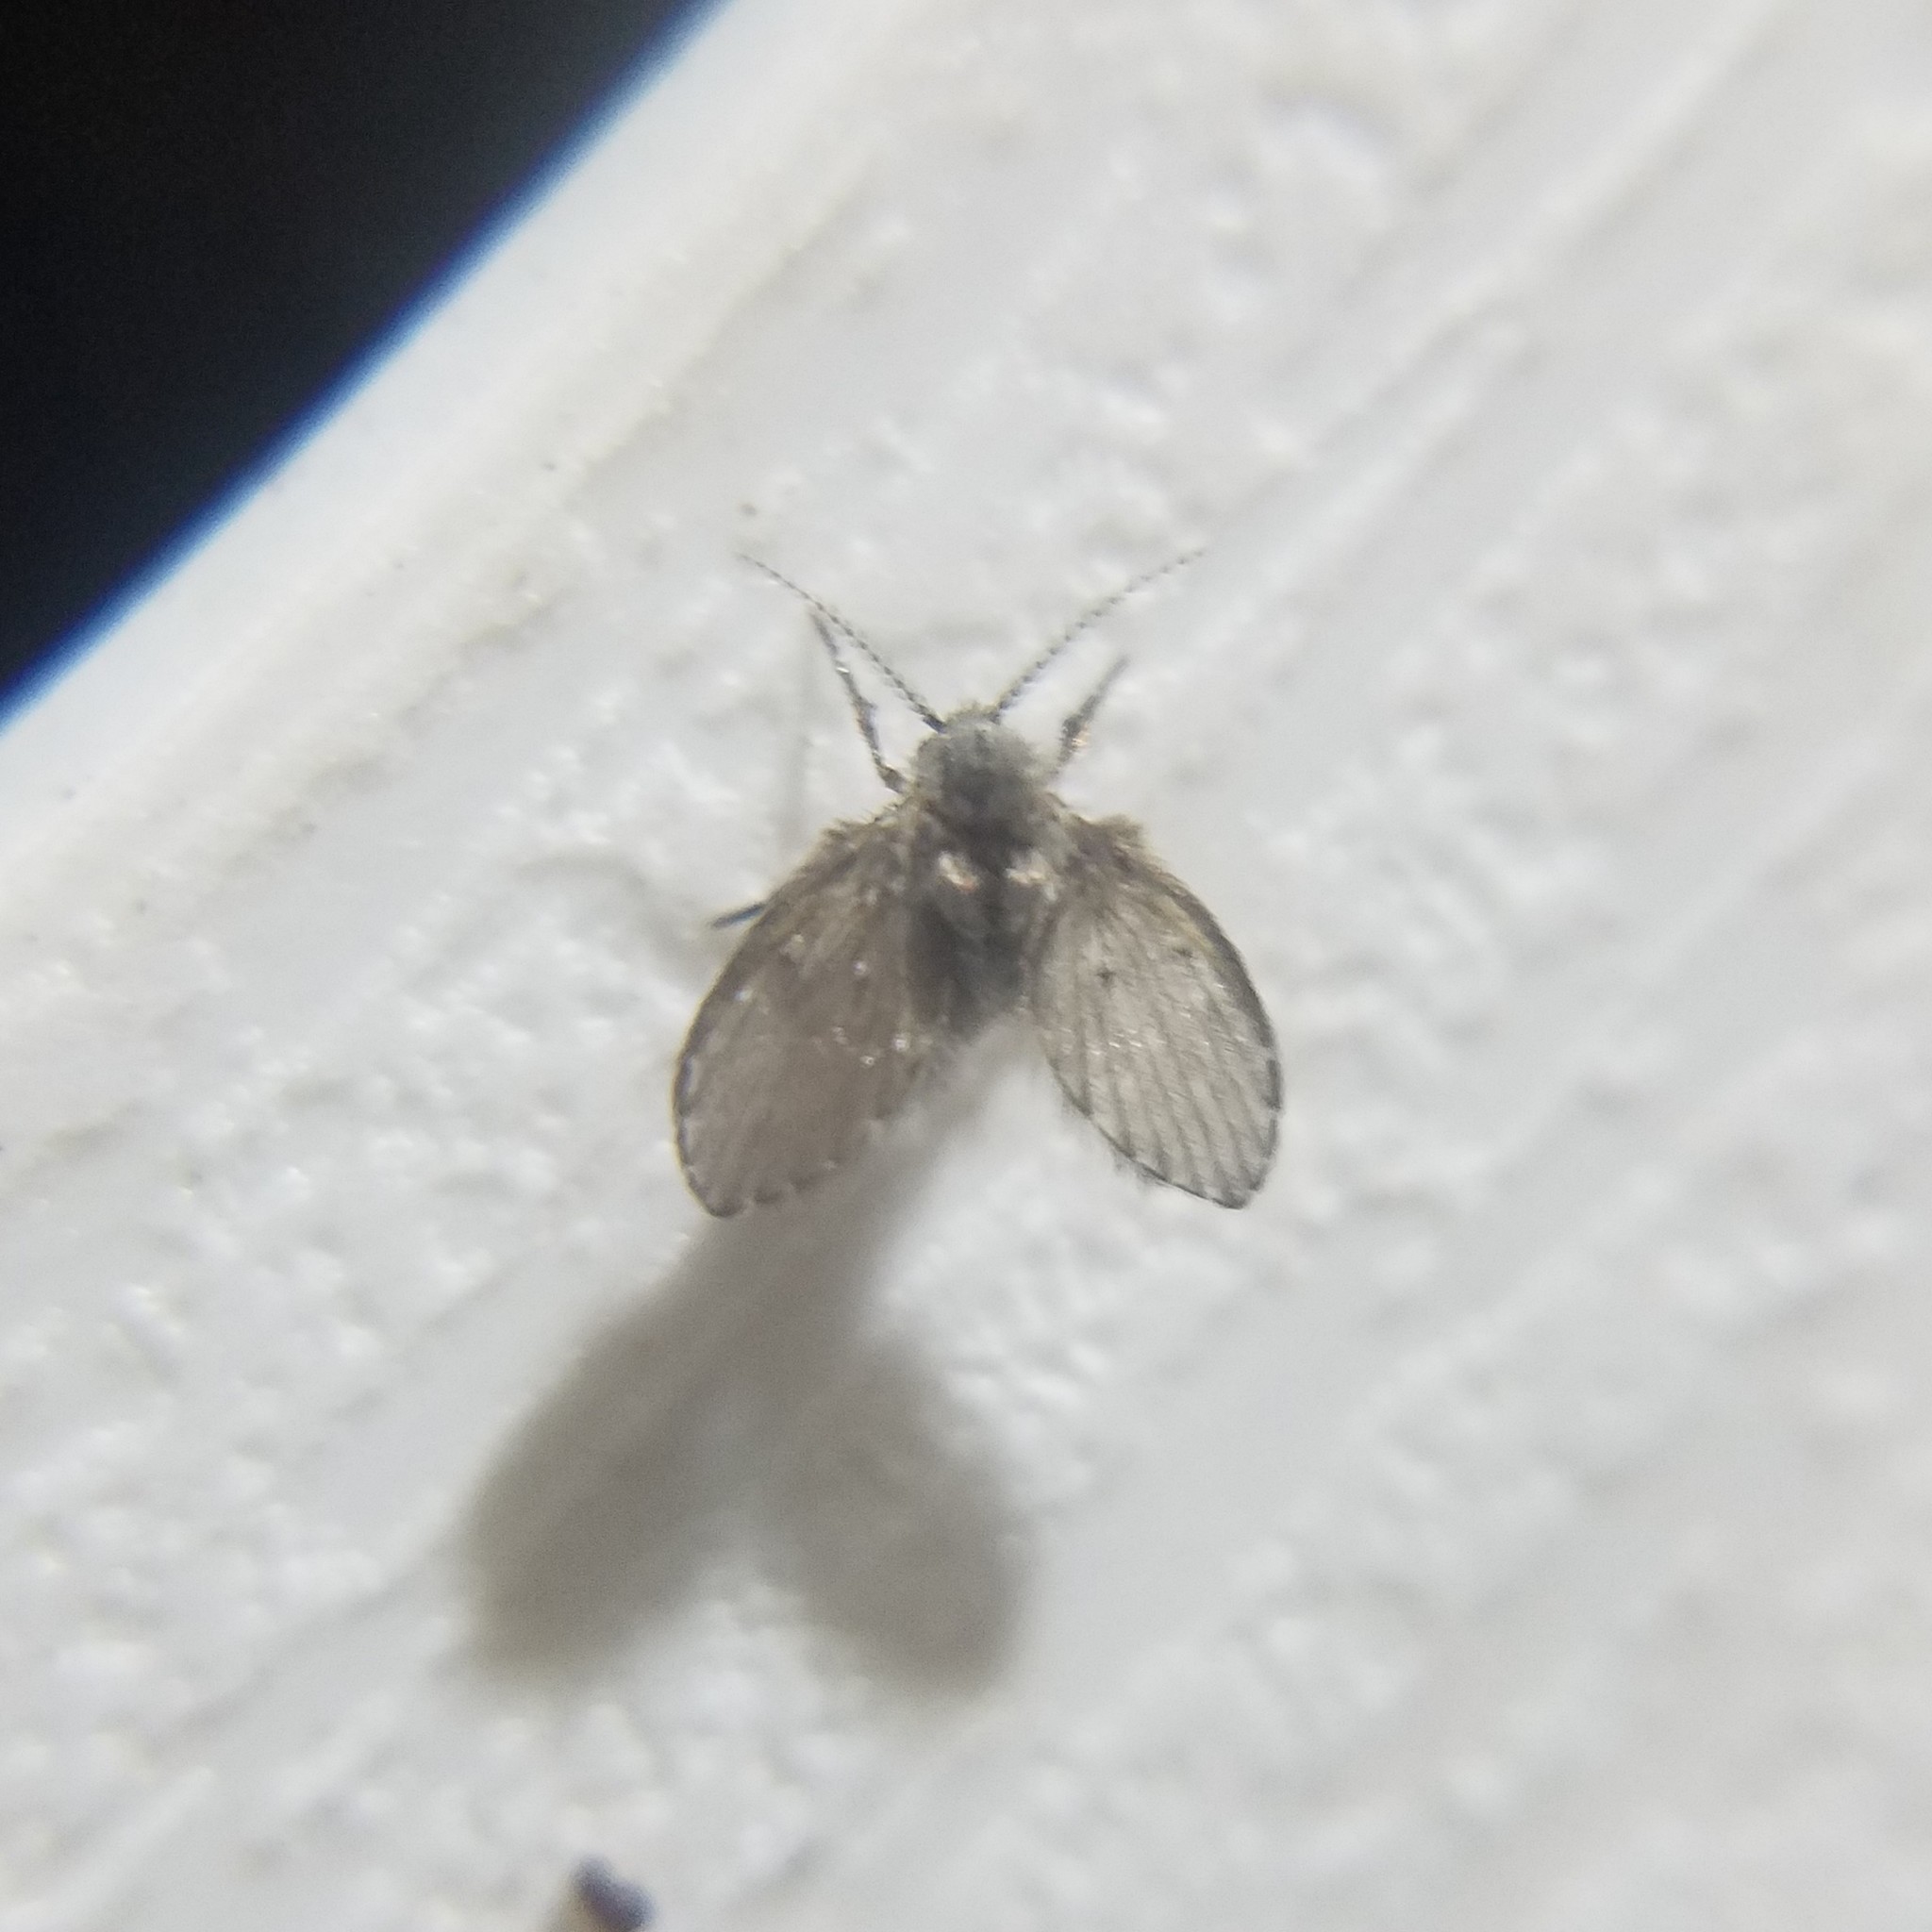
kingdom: Animalia
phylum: Arthropoda
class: Insecta
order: Diptera
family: Psychodidae
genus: Clogmia
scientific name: Clogmia albipunctatus
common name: White-spotted moth fly
